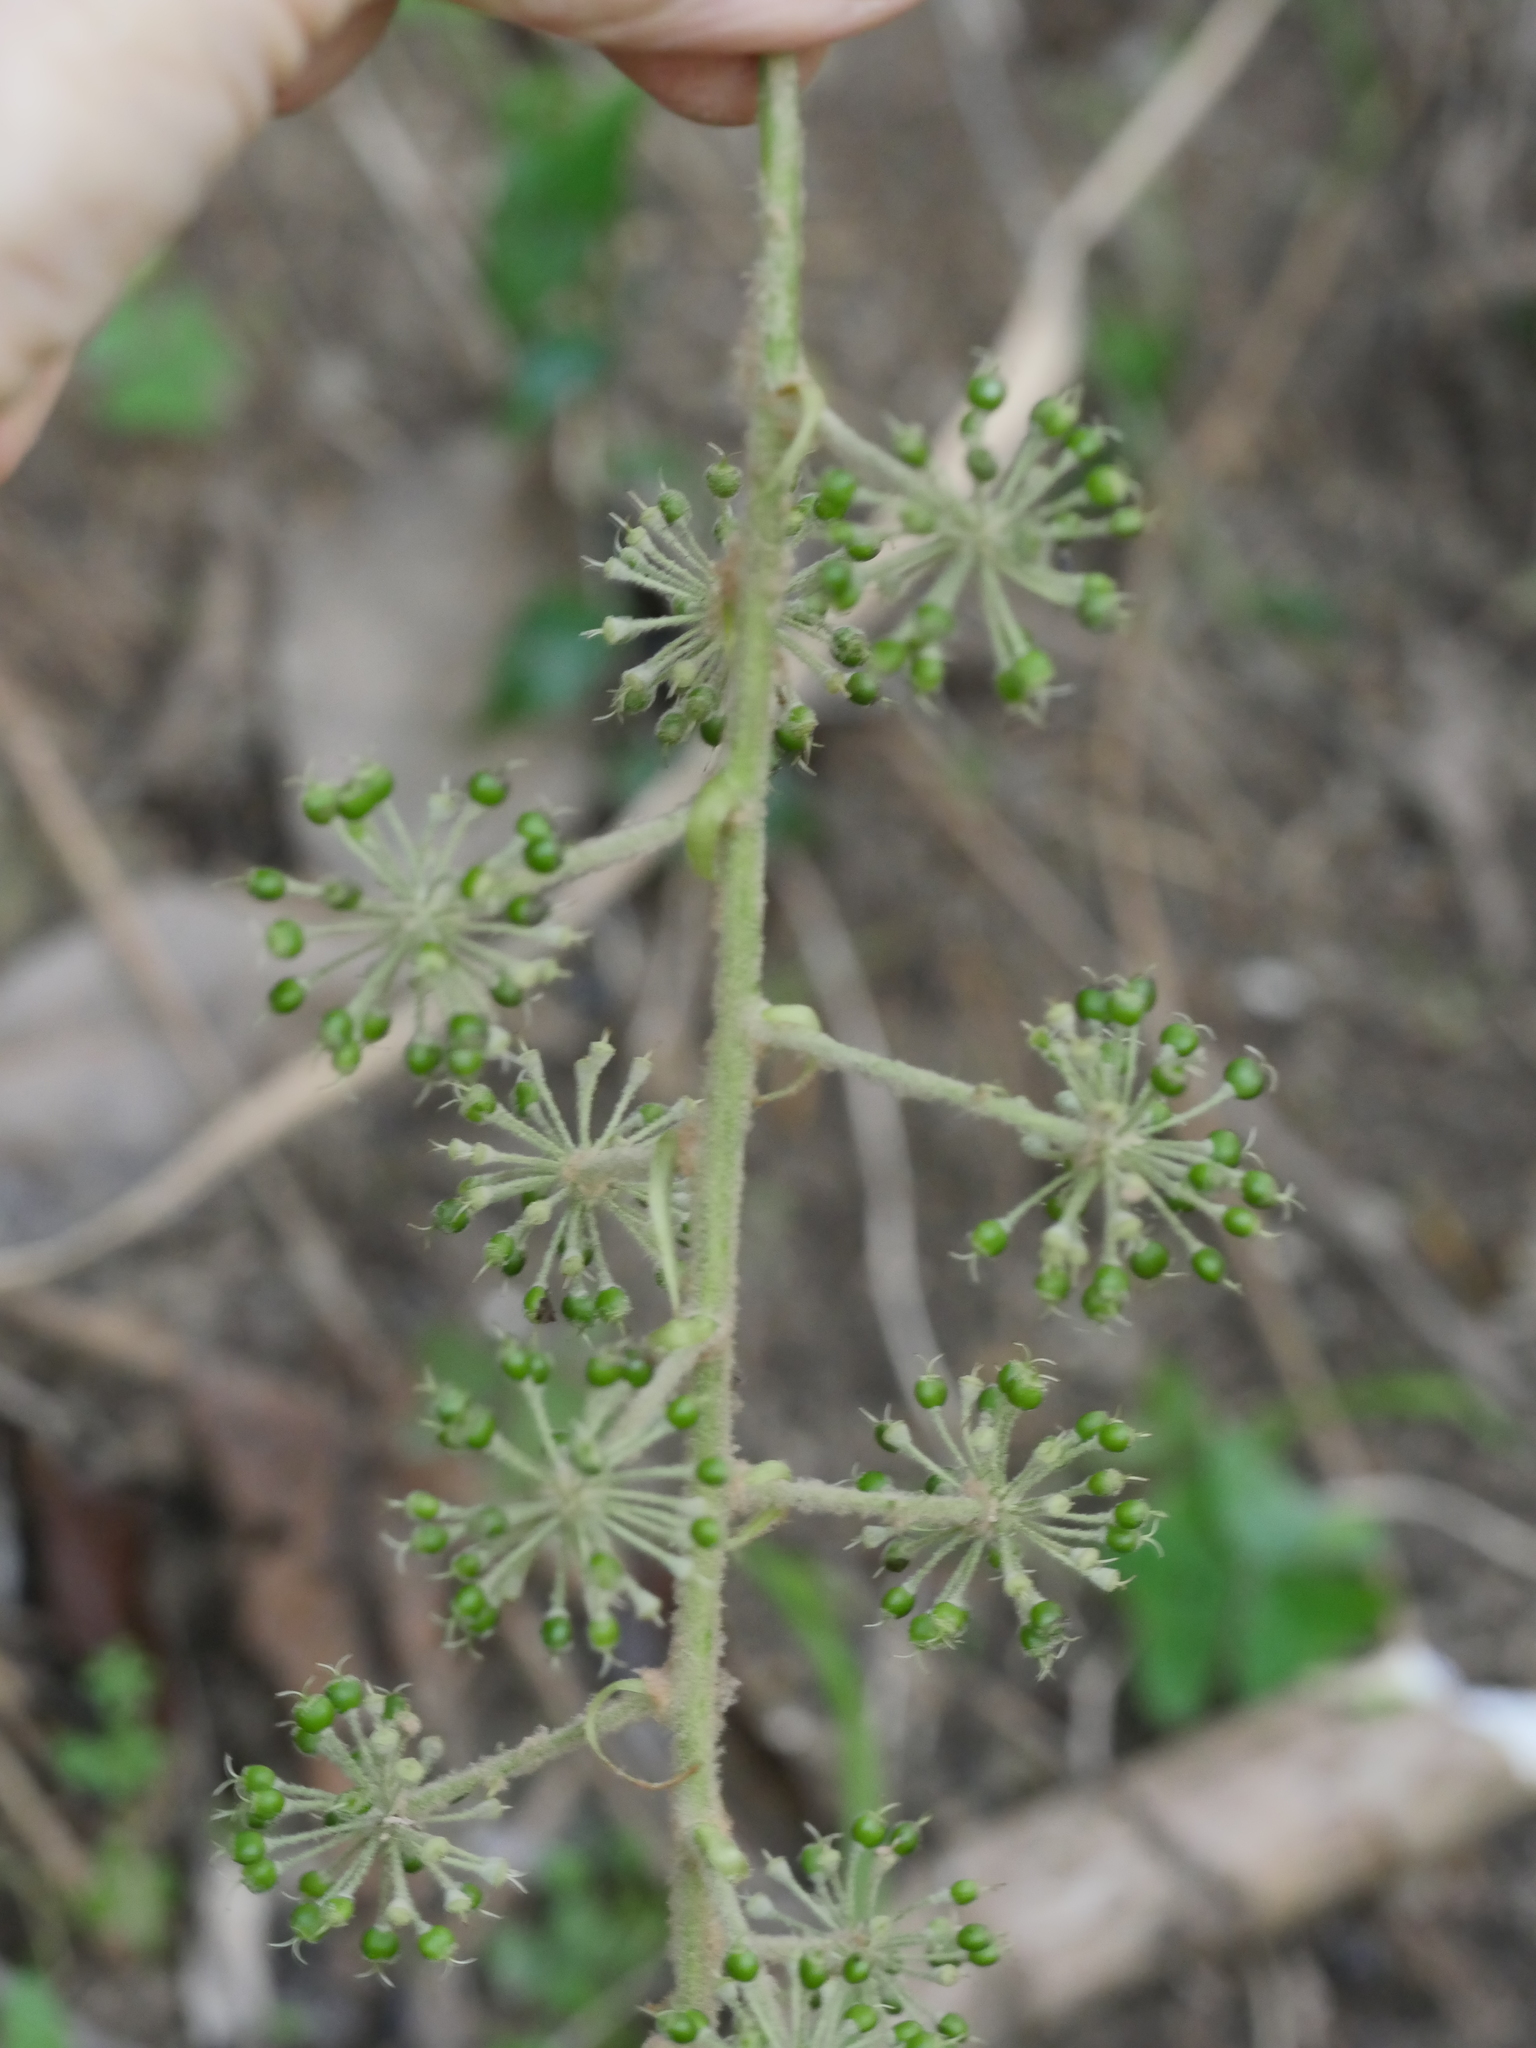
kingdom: Plantae
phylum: Tracheophyta
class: Magnoliopsida
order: Apiales
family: Araliaceae
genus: Tetrapanax
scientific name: Tetrapanax papyrifer
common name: Rice-paper plant
